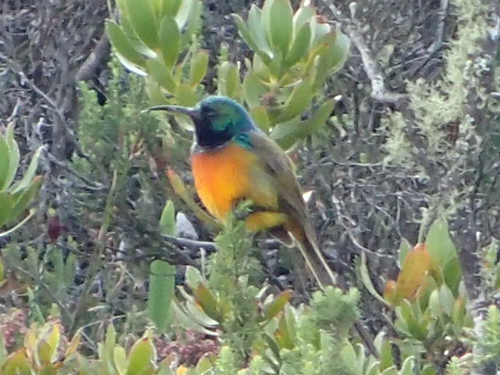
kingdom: Animalia
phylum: Chordata
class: Aves
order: Passeriformes
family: Nectariniidae
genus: Anthobaphes
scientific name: Anthobaphes violacea
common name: Orange-breasted sunbird
